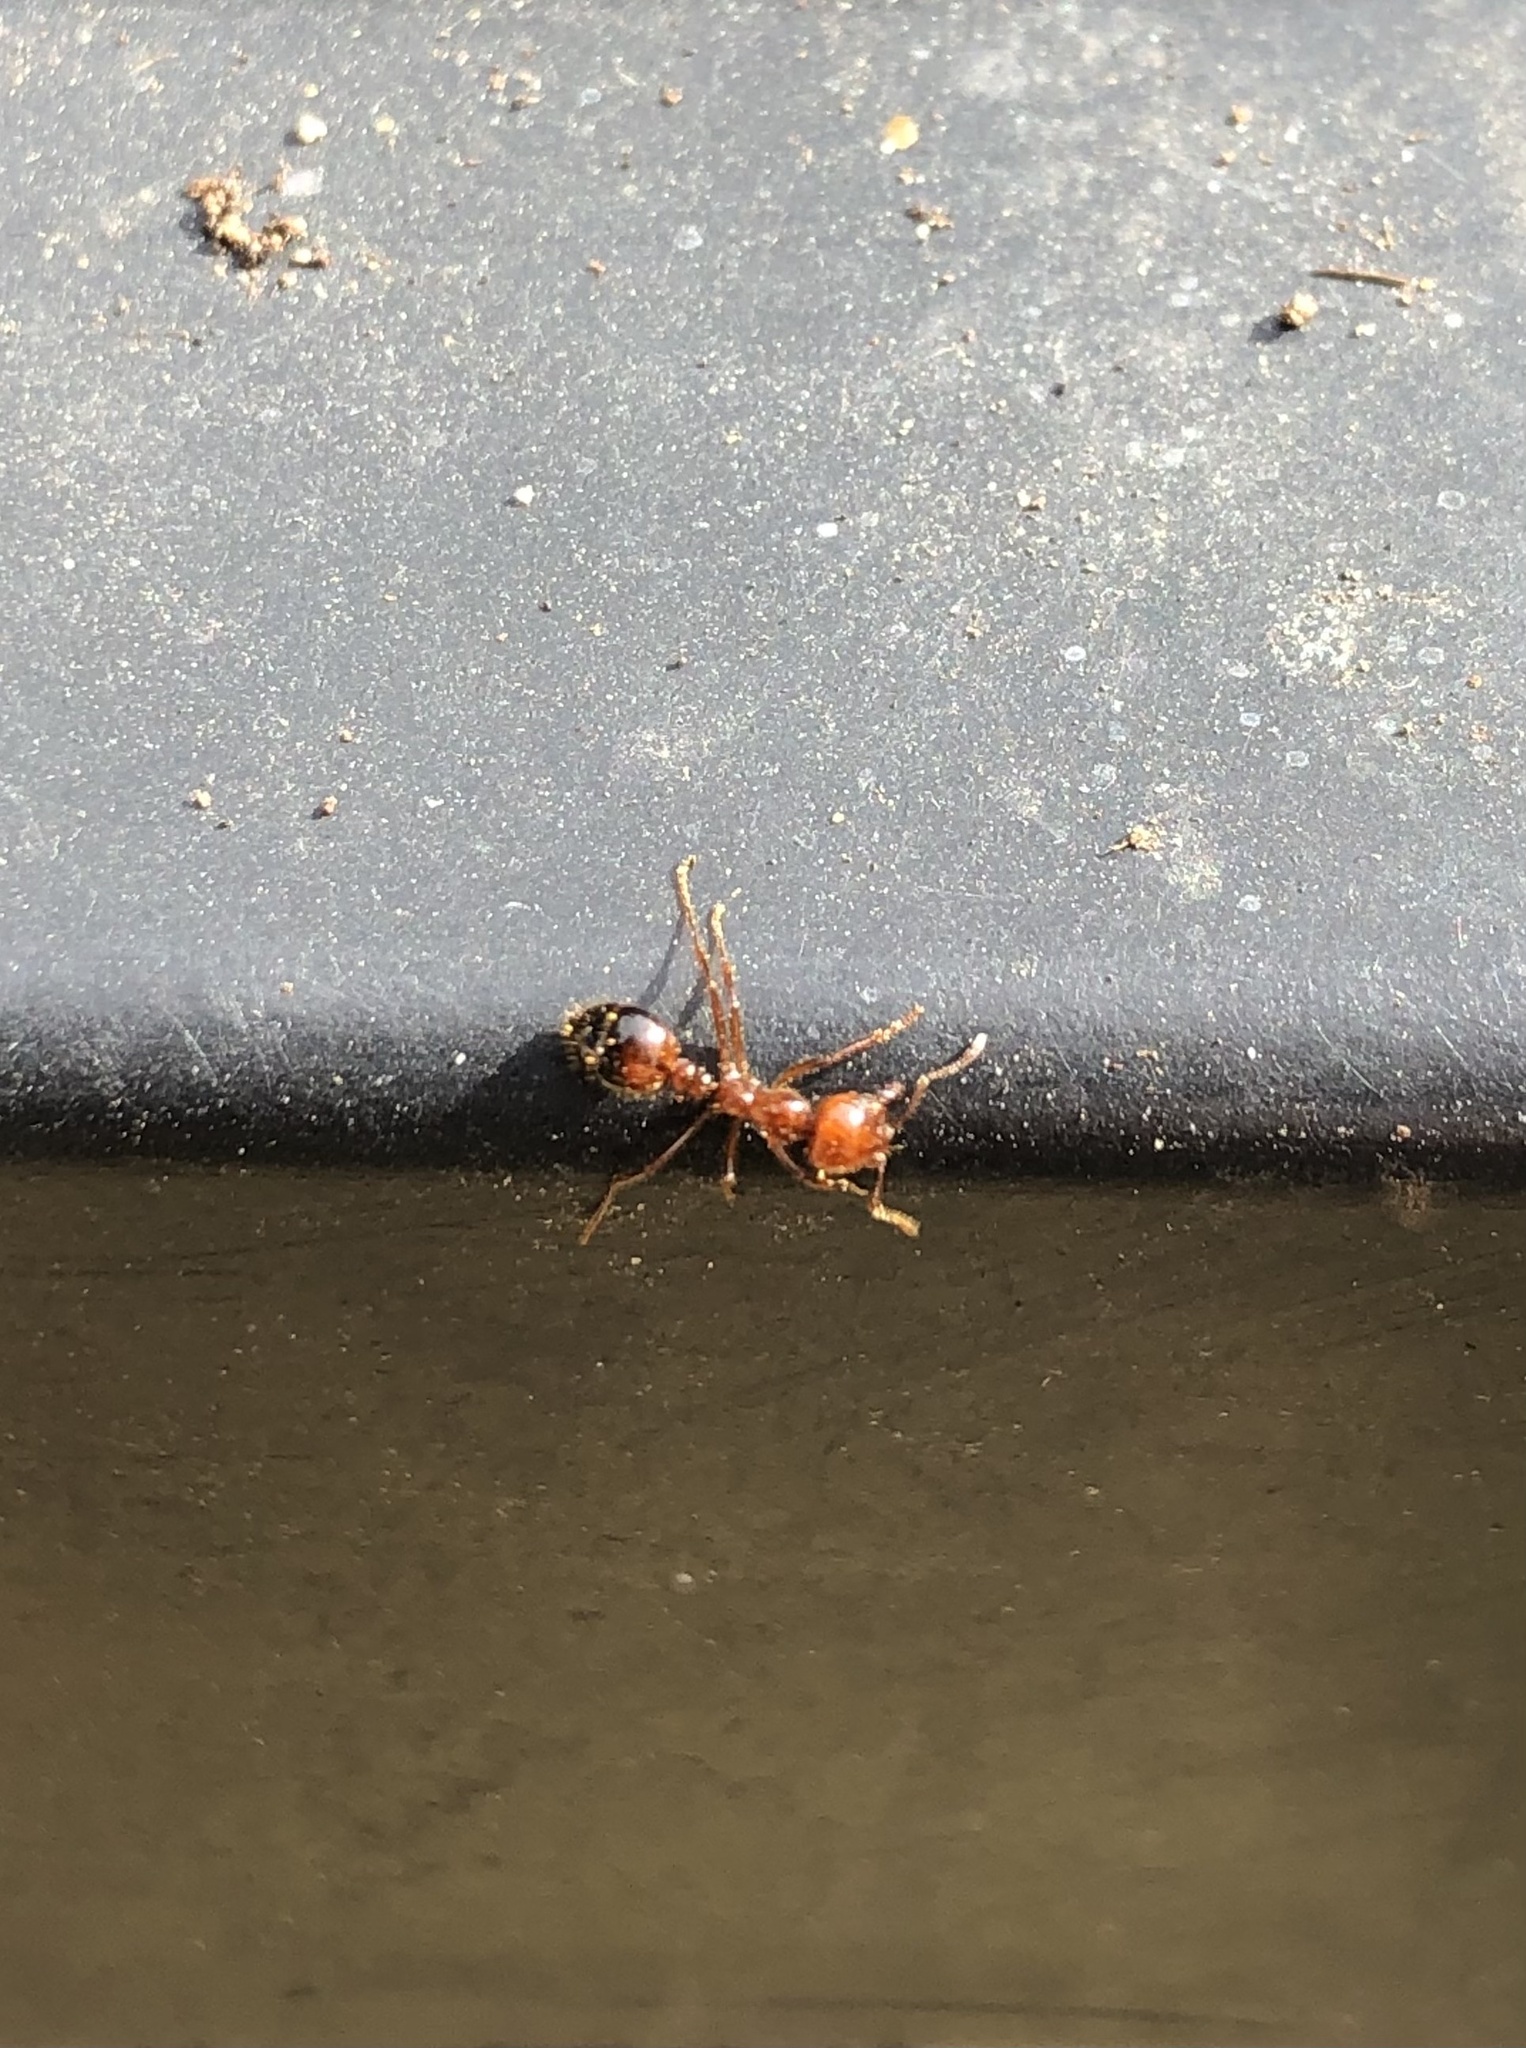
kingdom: Animalia
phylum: Arthropoda
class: Insecta
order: Hymenoptera
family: Formicidae
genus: Solenopsis
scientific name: Solenopsis invicta
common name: Red imported fire ant
